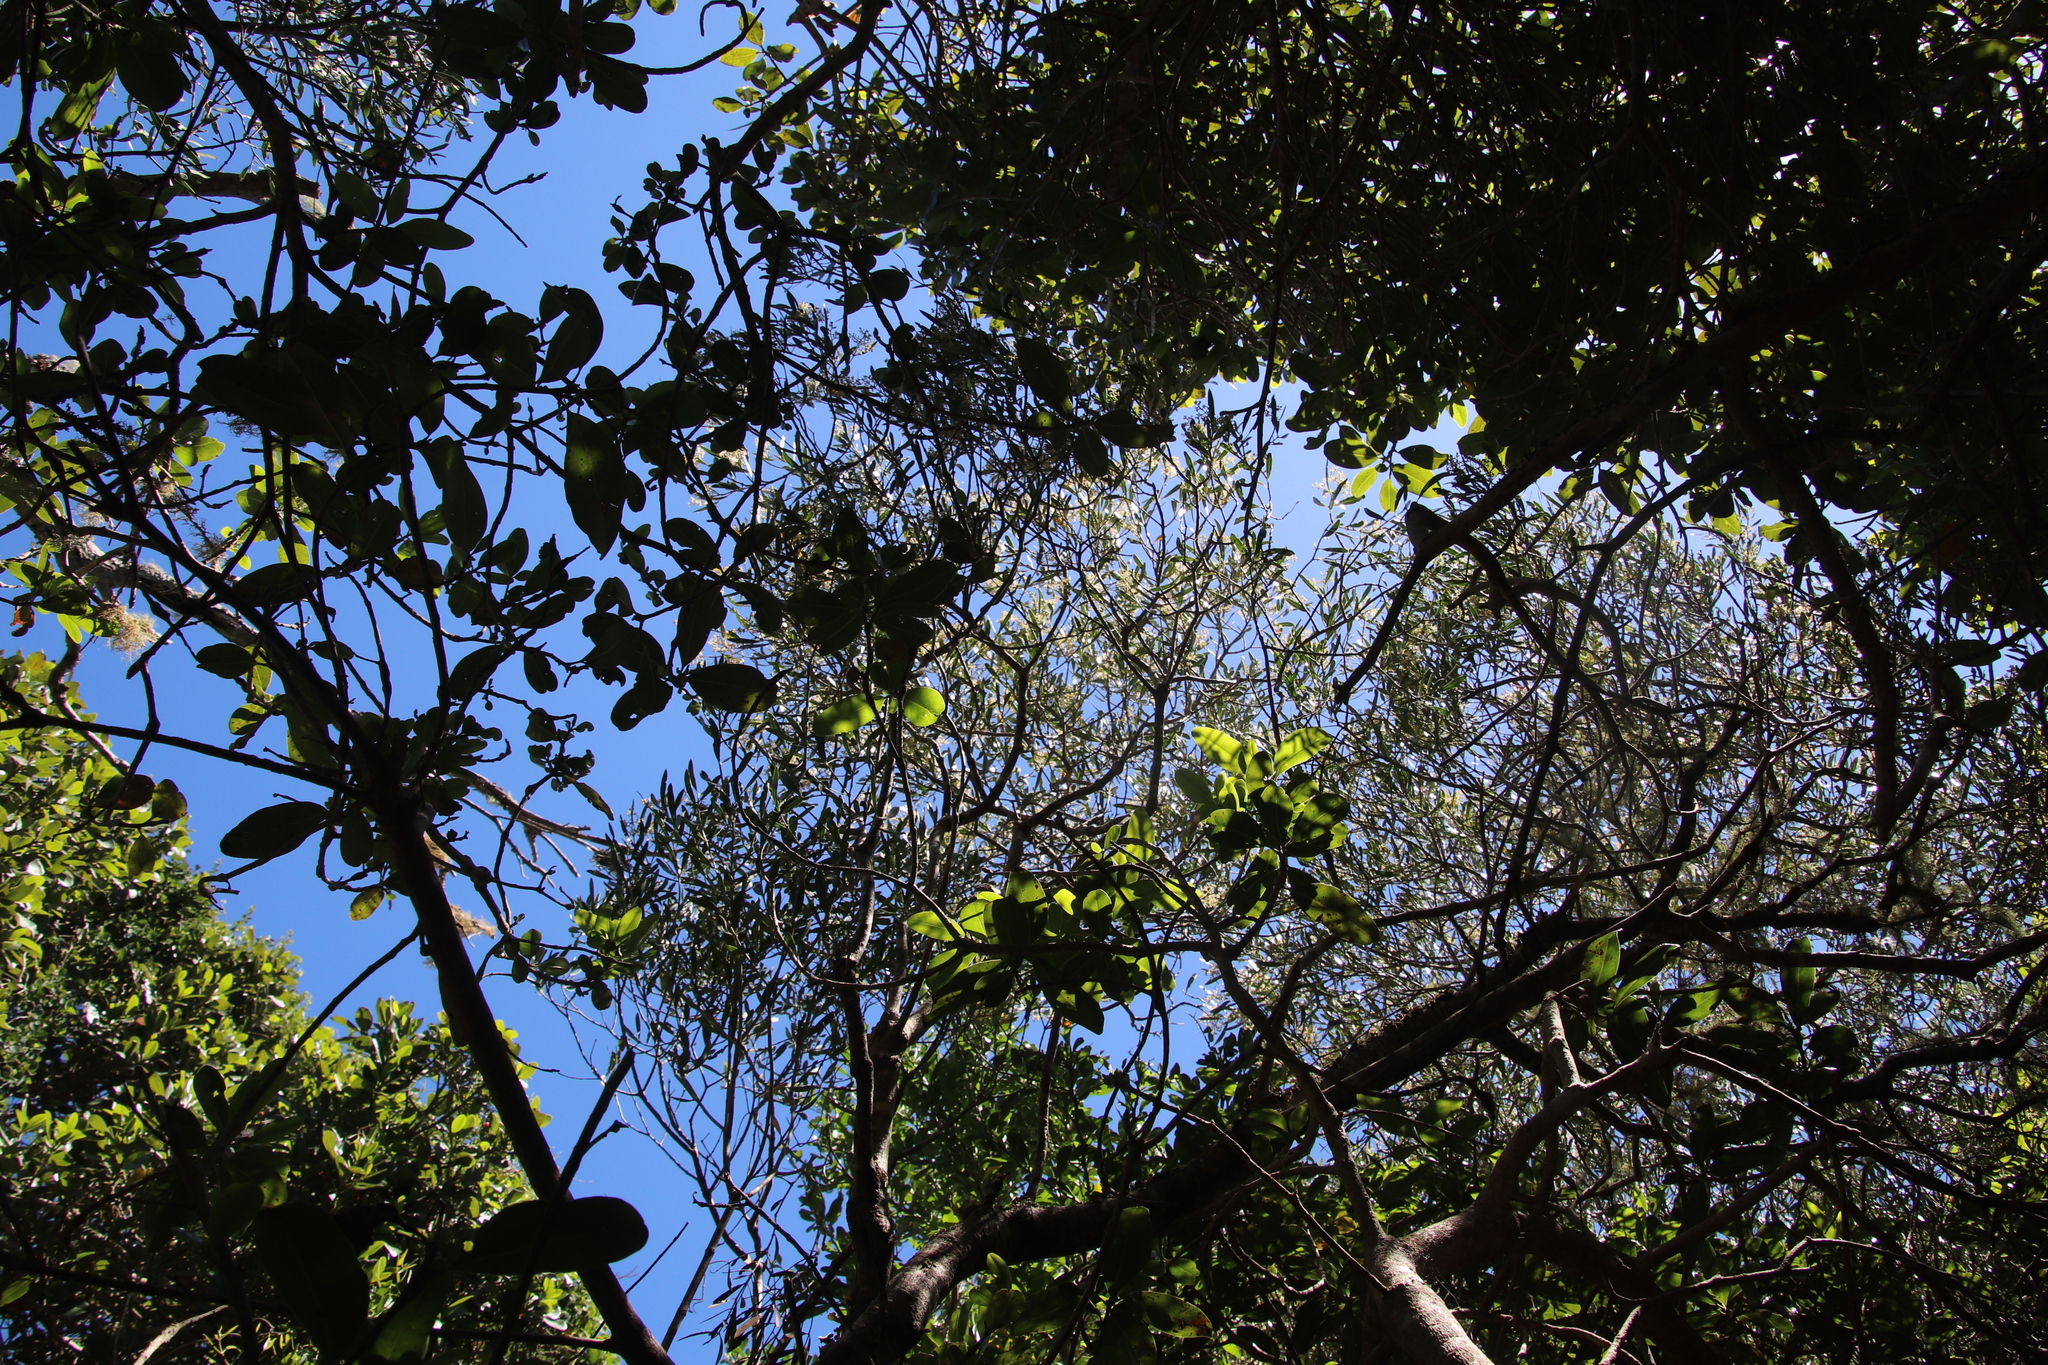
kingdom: Plantae
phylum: Tracheophyta
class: Magnoliopsida
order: Lamiales
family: Oleaceae
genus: Olea
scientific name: Olea exasperata
